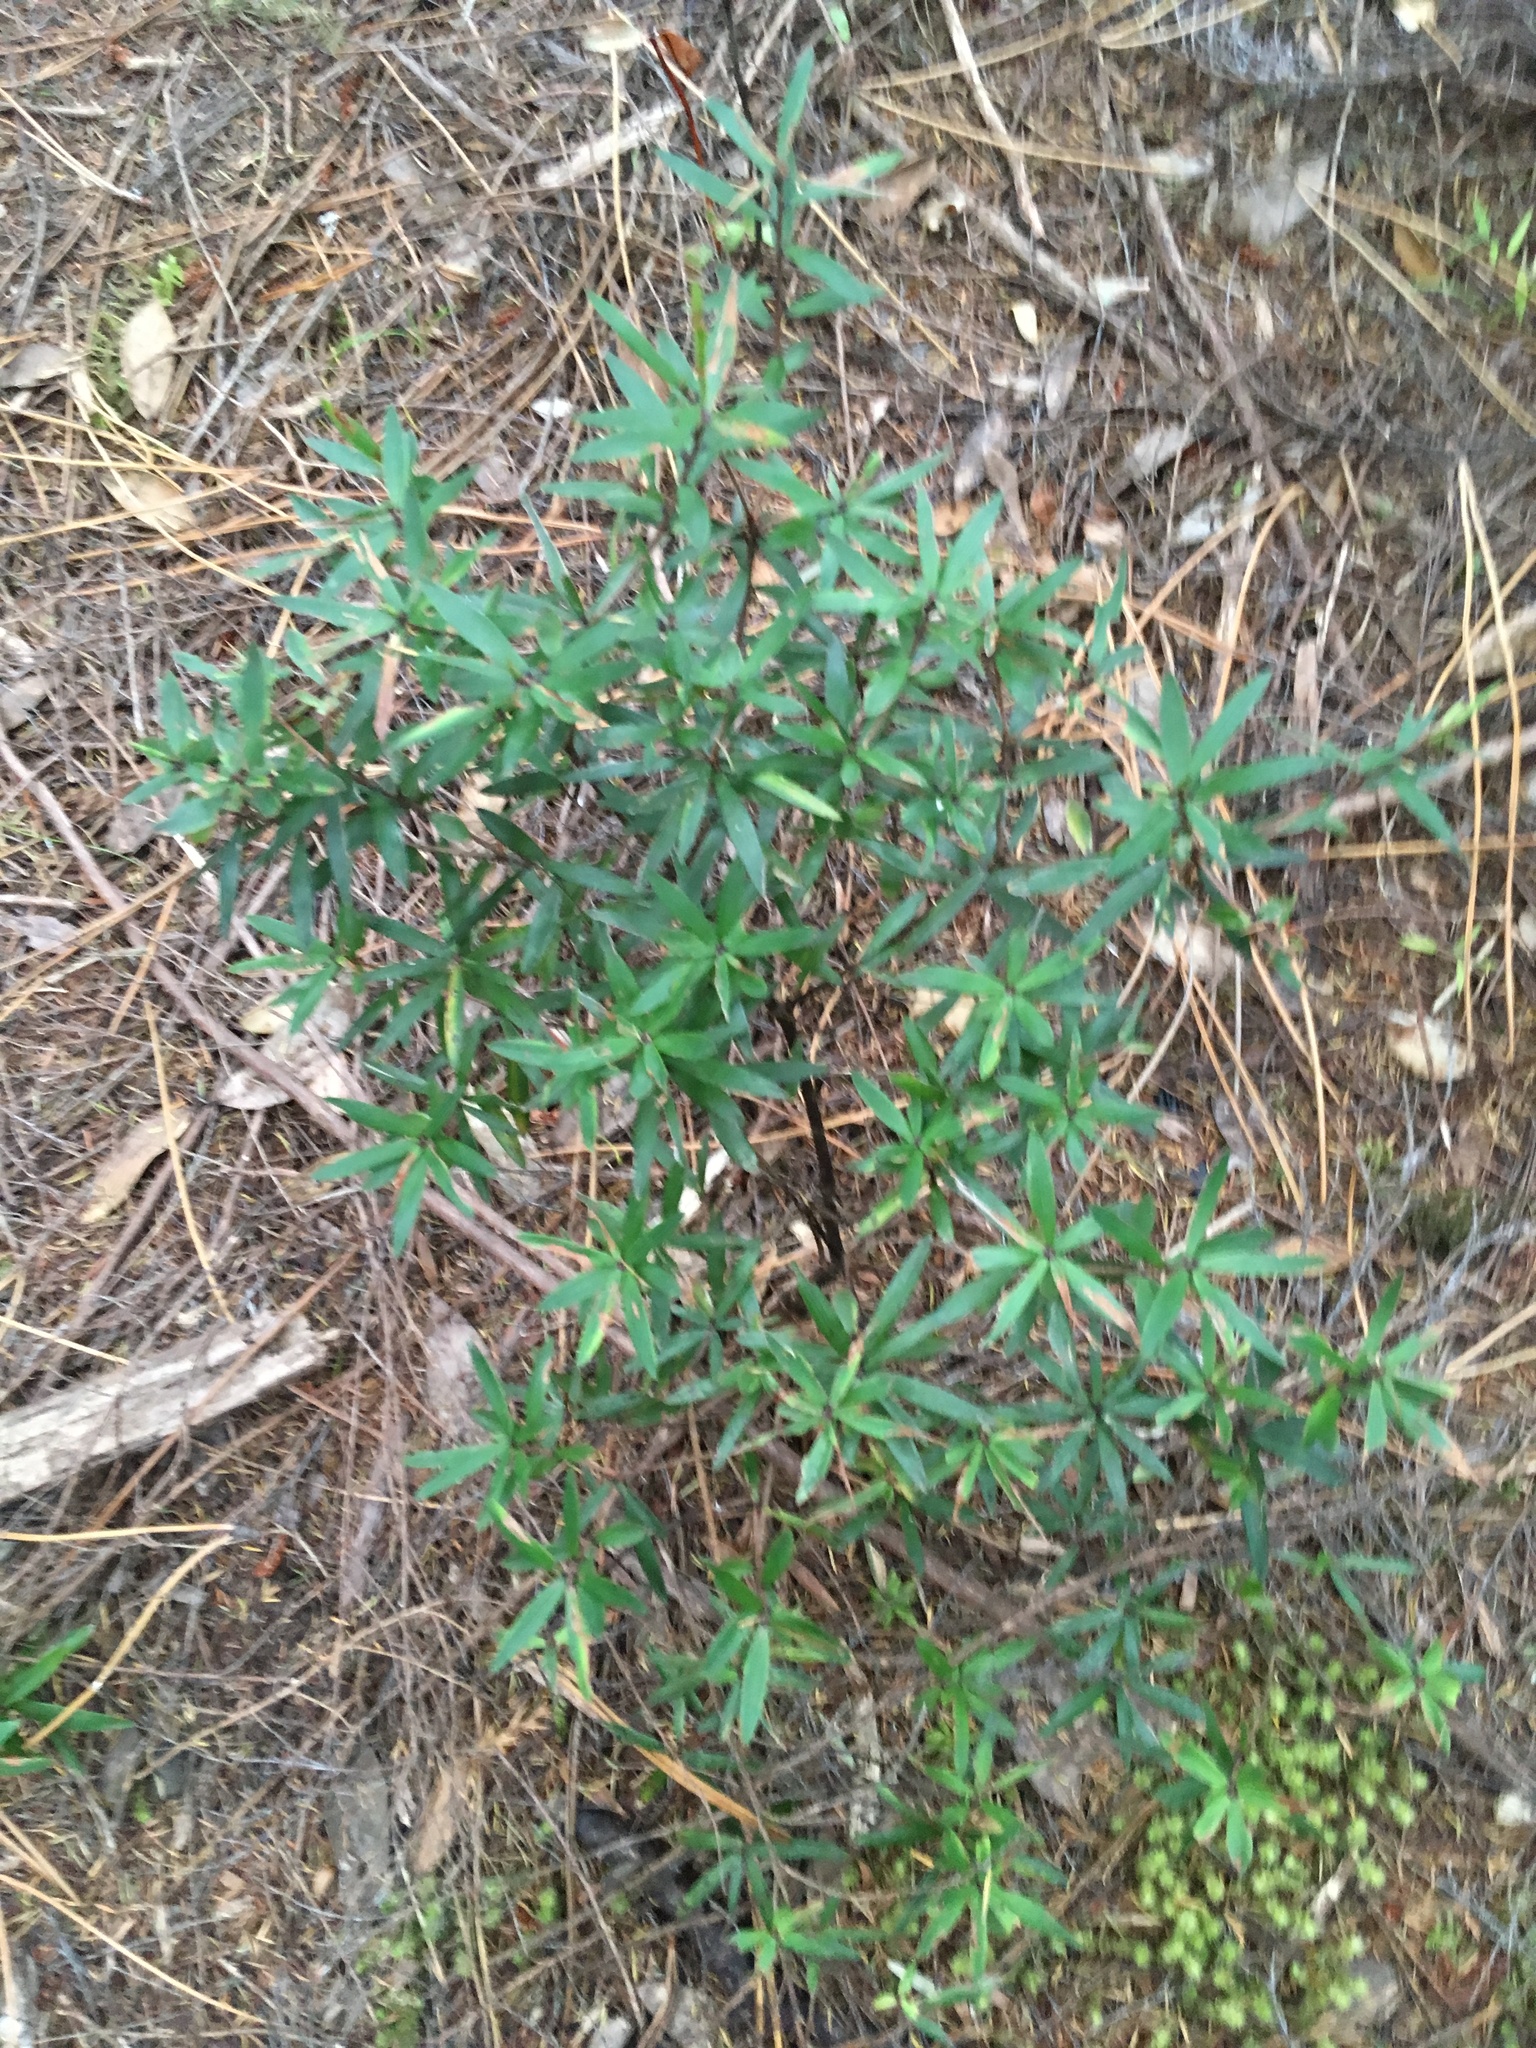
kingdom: Plantae
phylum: Tracheophyta
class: Magnoliopsida
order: Ericales
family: Ericaceae
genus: Leucopogon
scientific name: Leucopogon fasciculatus
